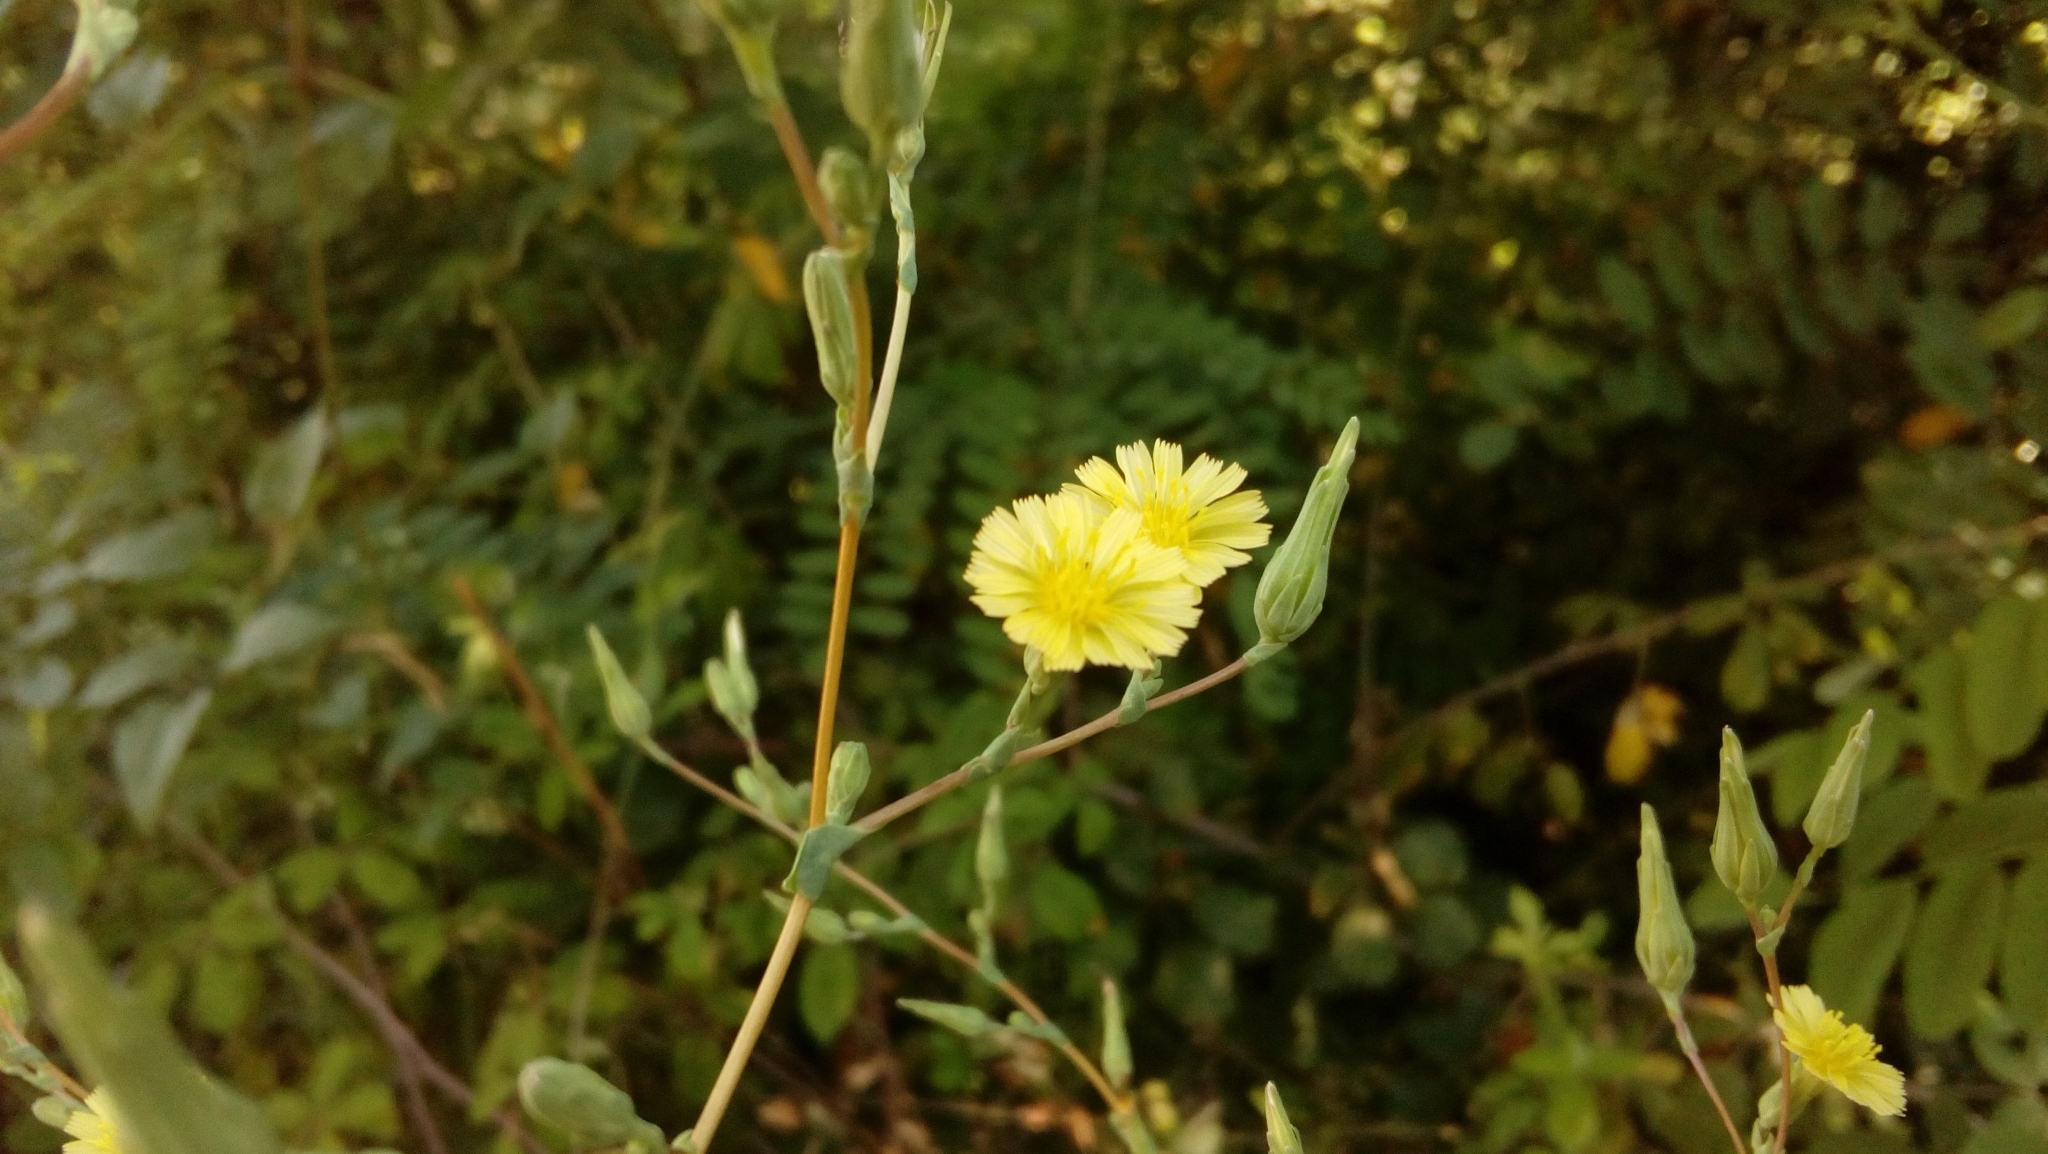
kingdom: Plantae
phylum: Tracheophyta
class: Magnoliopsida
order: Asterales
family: Asteraceae
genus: Lactuca
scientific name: Lactuca serriola
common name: Prickly lettuce
